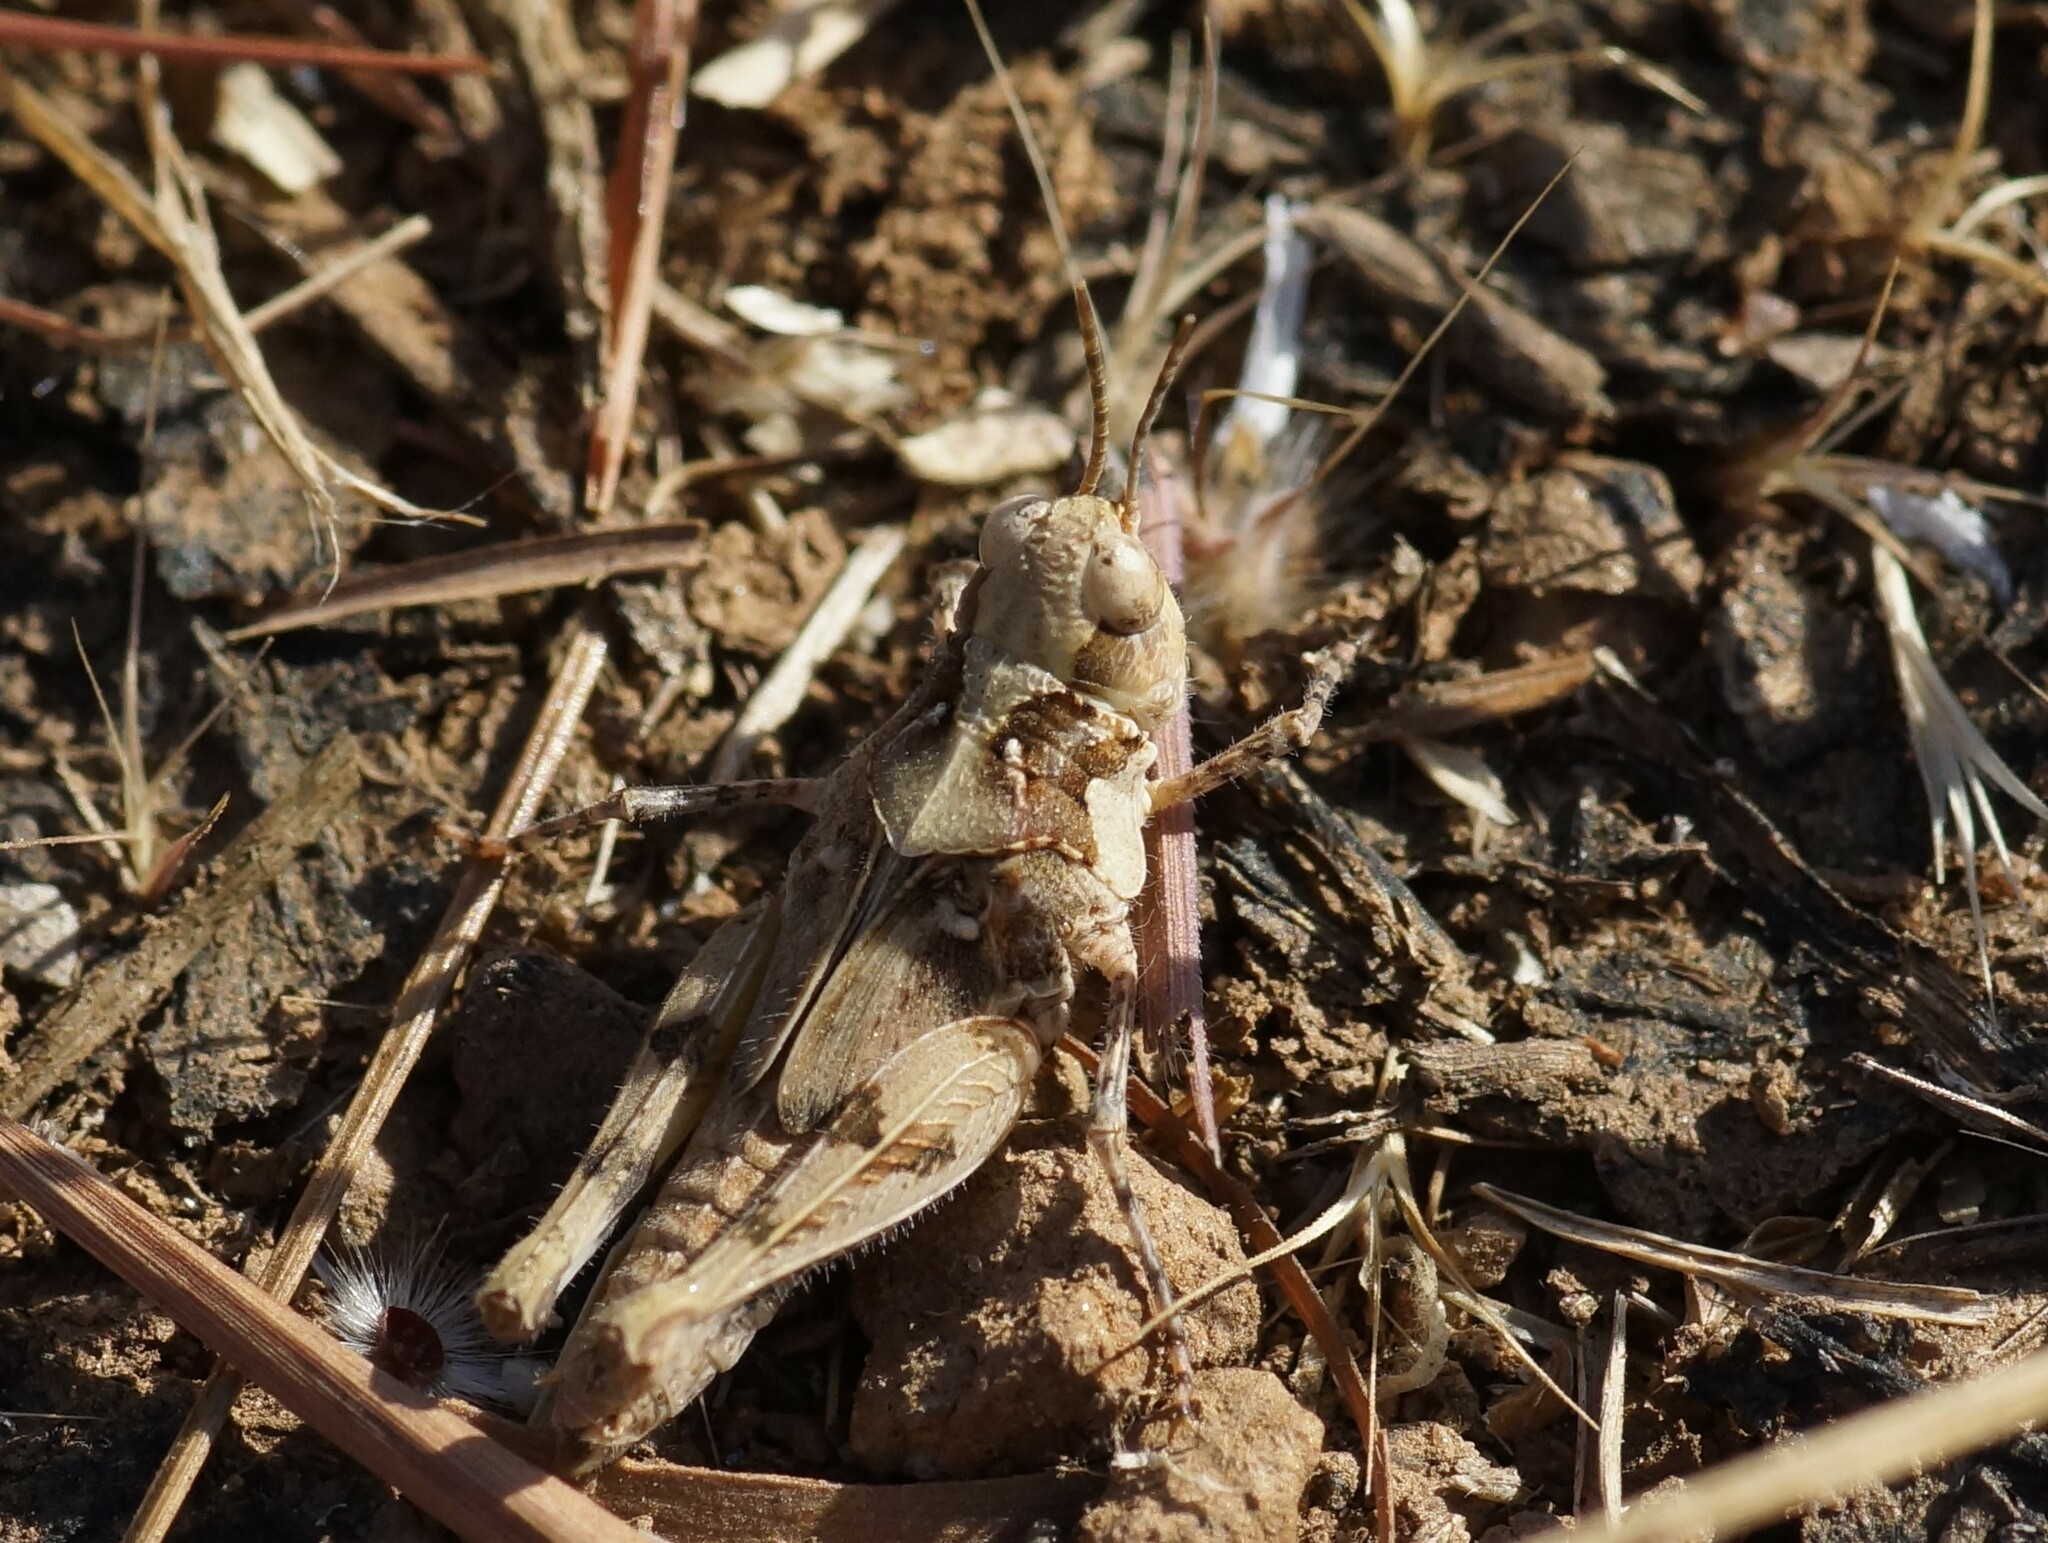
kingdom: Animalia
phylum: Arthropoda
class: Insecta
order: Orthoptera
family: Acrididae
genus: Pycnostictus
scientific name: Pycnostictus seriatus
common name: Common bandwing
